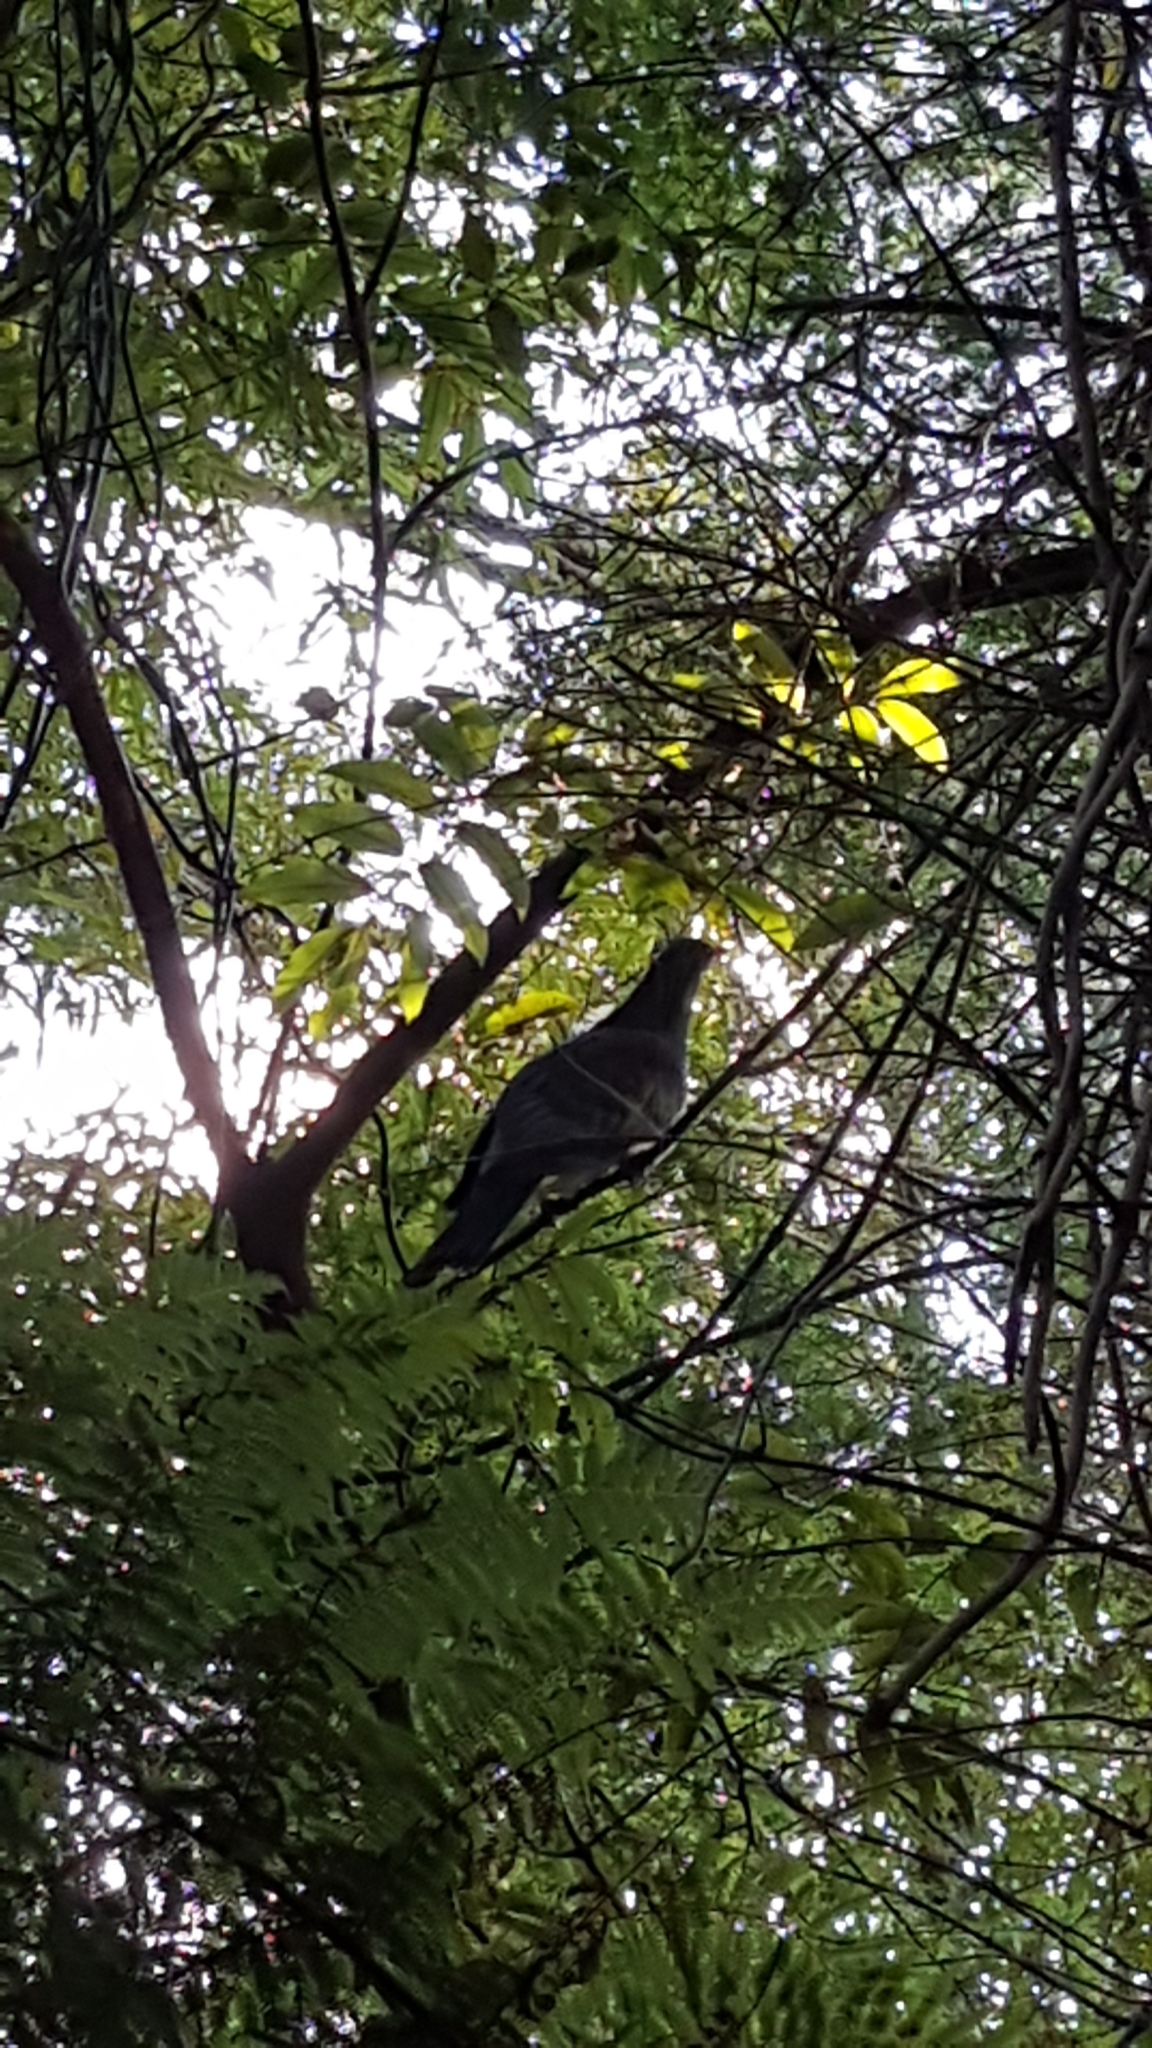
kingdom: Animalia
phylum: Chordata
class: Aves
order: Columbiformes
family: Columbidae
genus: Hemiphaga
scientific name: Hemiphaga novaeseelandiae
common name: New zealand pigeon
